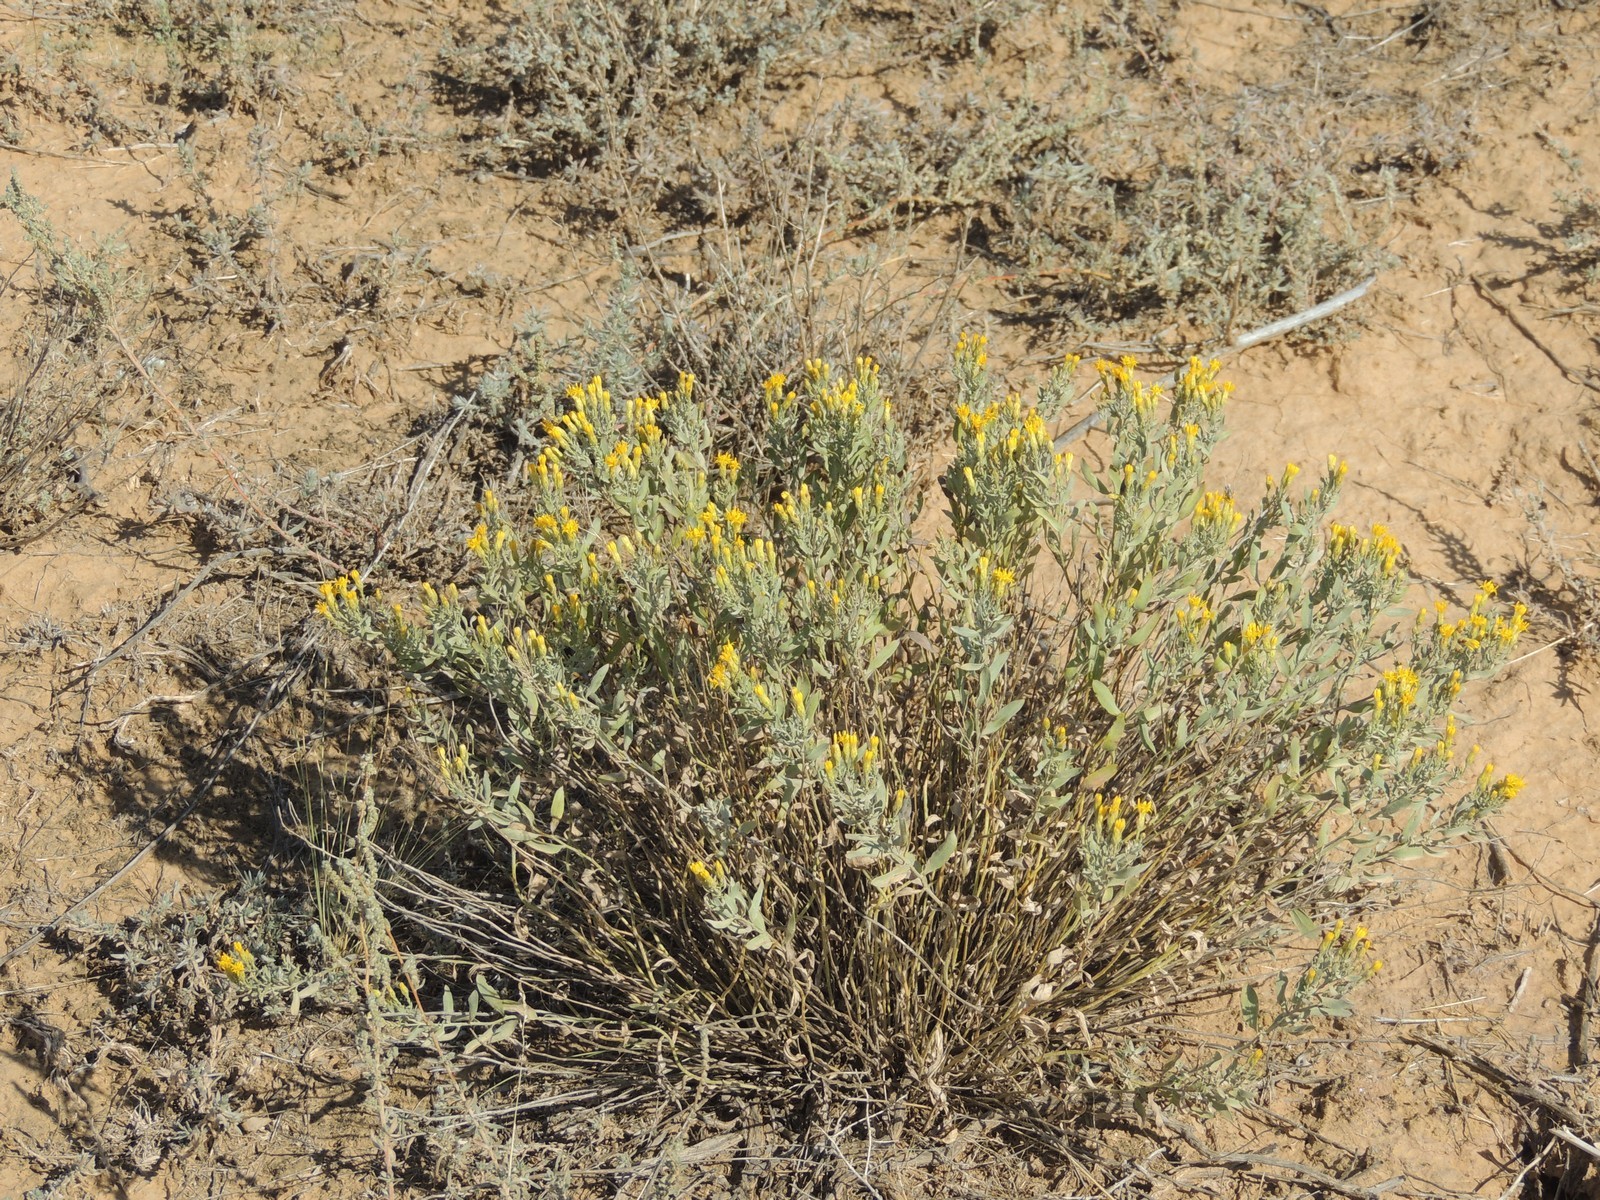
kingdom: Plantae
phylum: Tracheophyta
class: Magnoliopsida
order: Asterales
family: Asteraceae
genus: Galatella
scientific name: Galatella villosa
